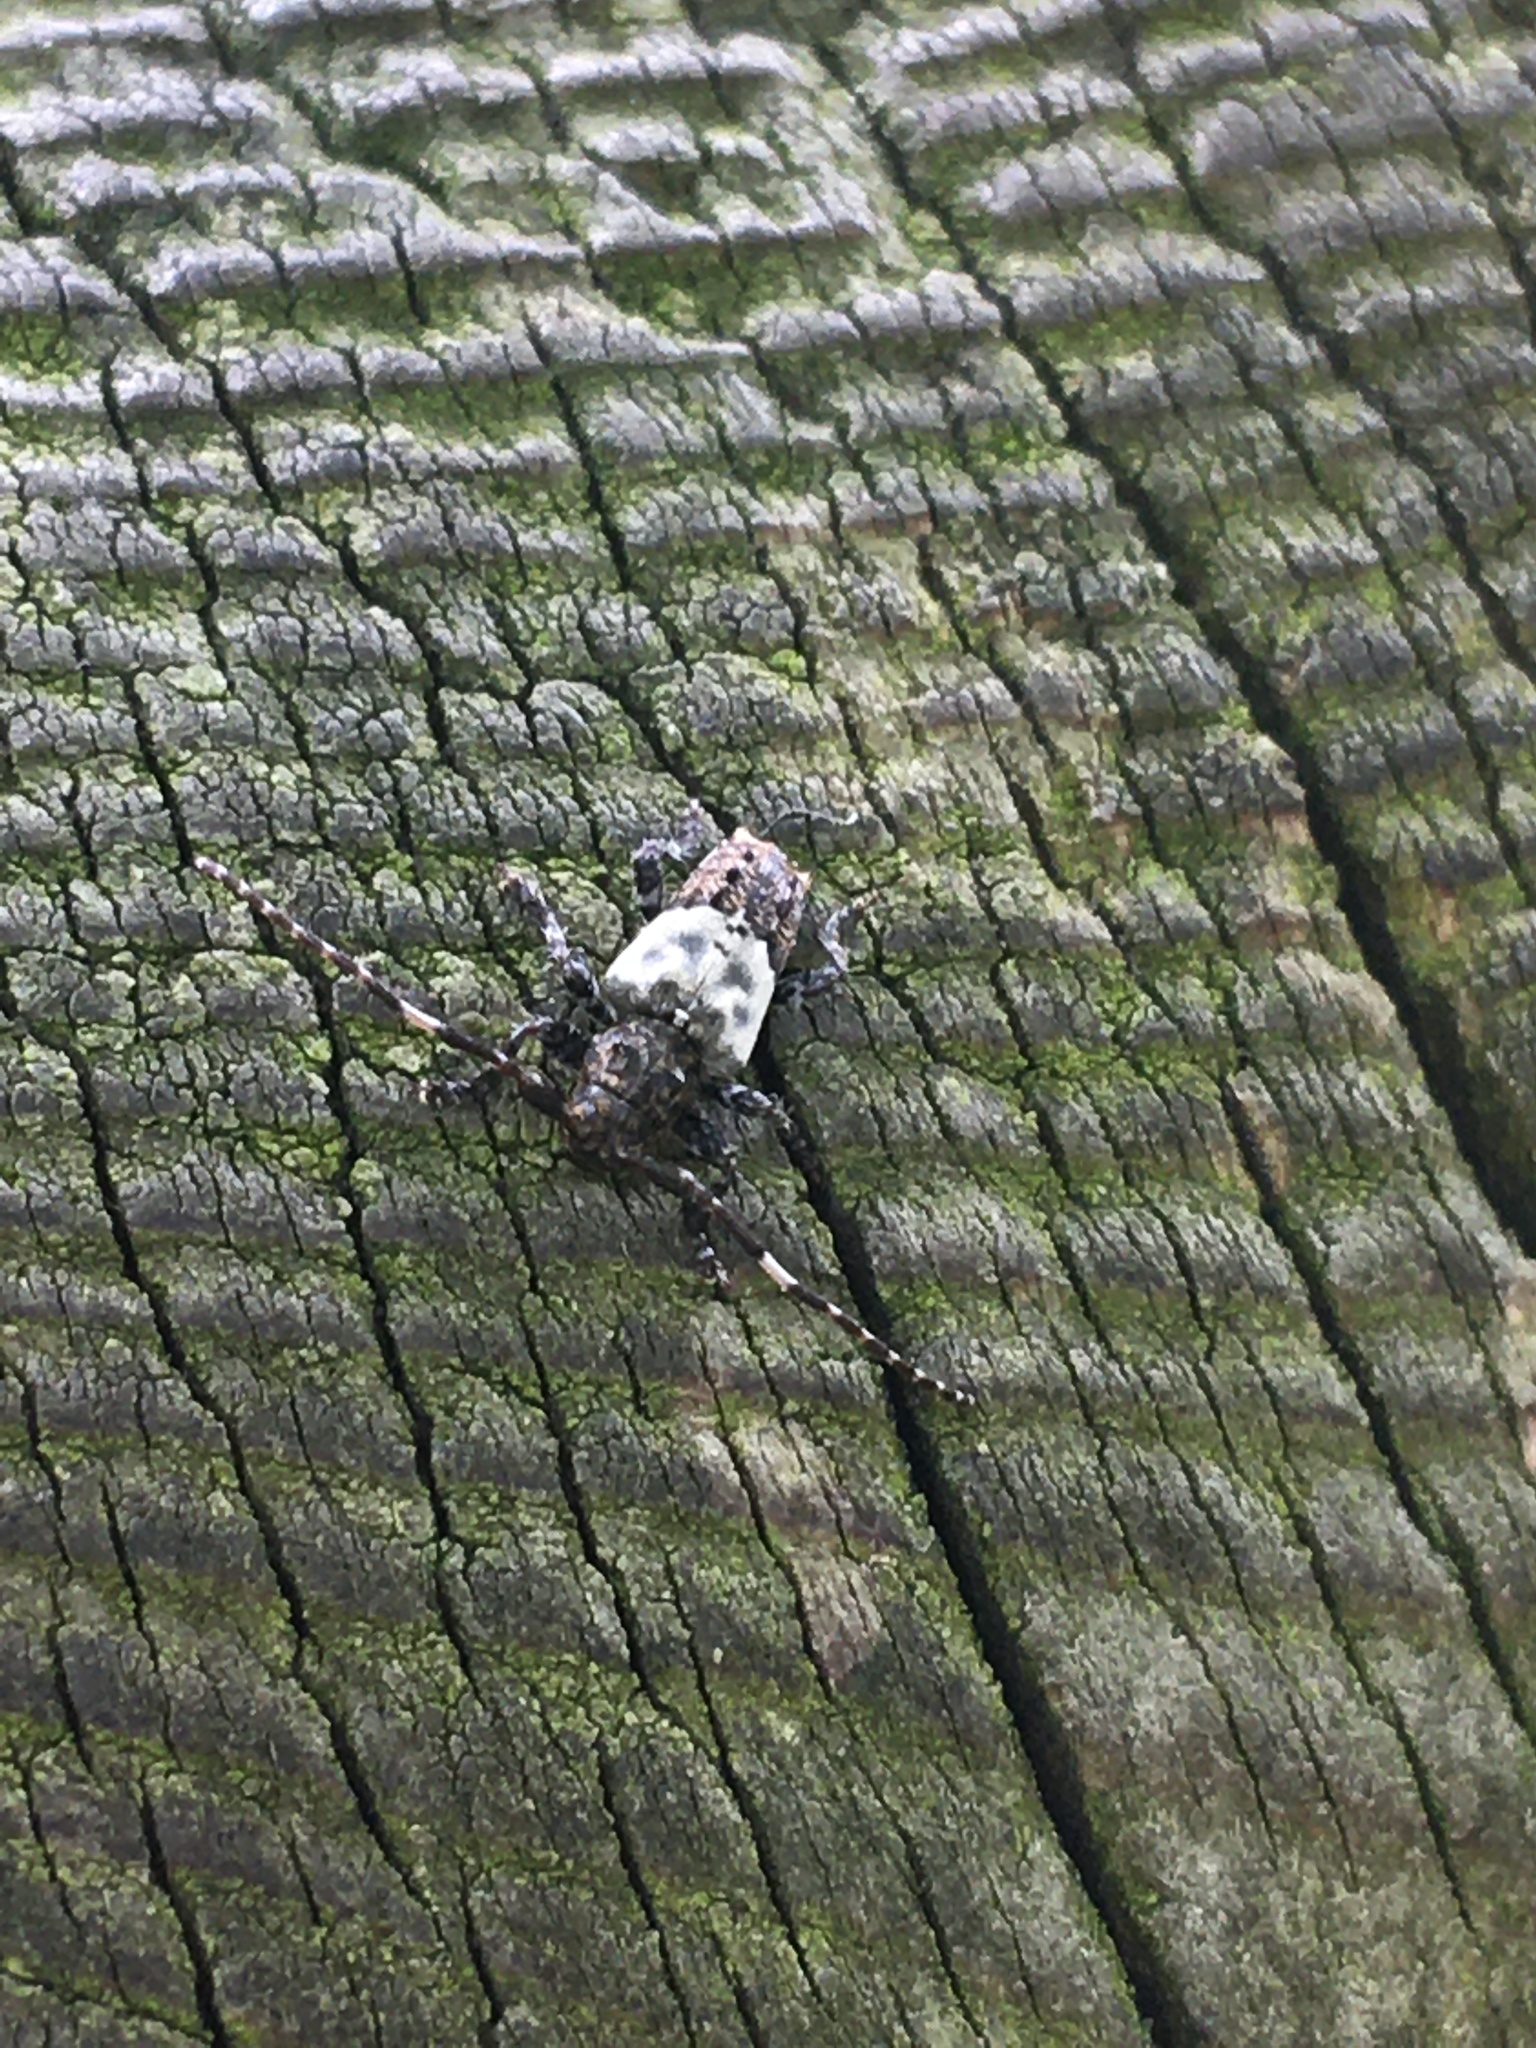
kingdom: Animalia
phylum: Arthropoda
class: Insecta
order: Coleoptera
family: Cerambycidae
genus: Pogonocherus
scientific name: Pogonocherus hispidulus
